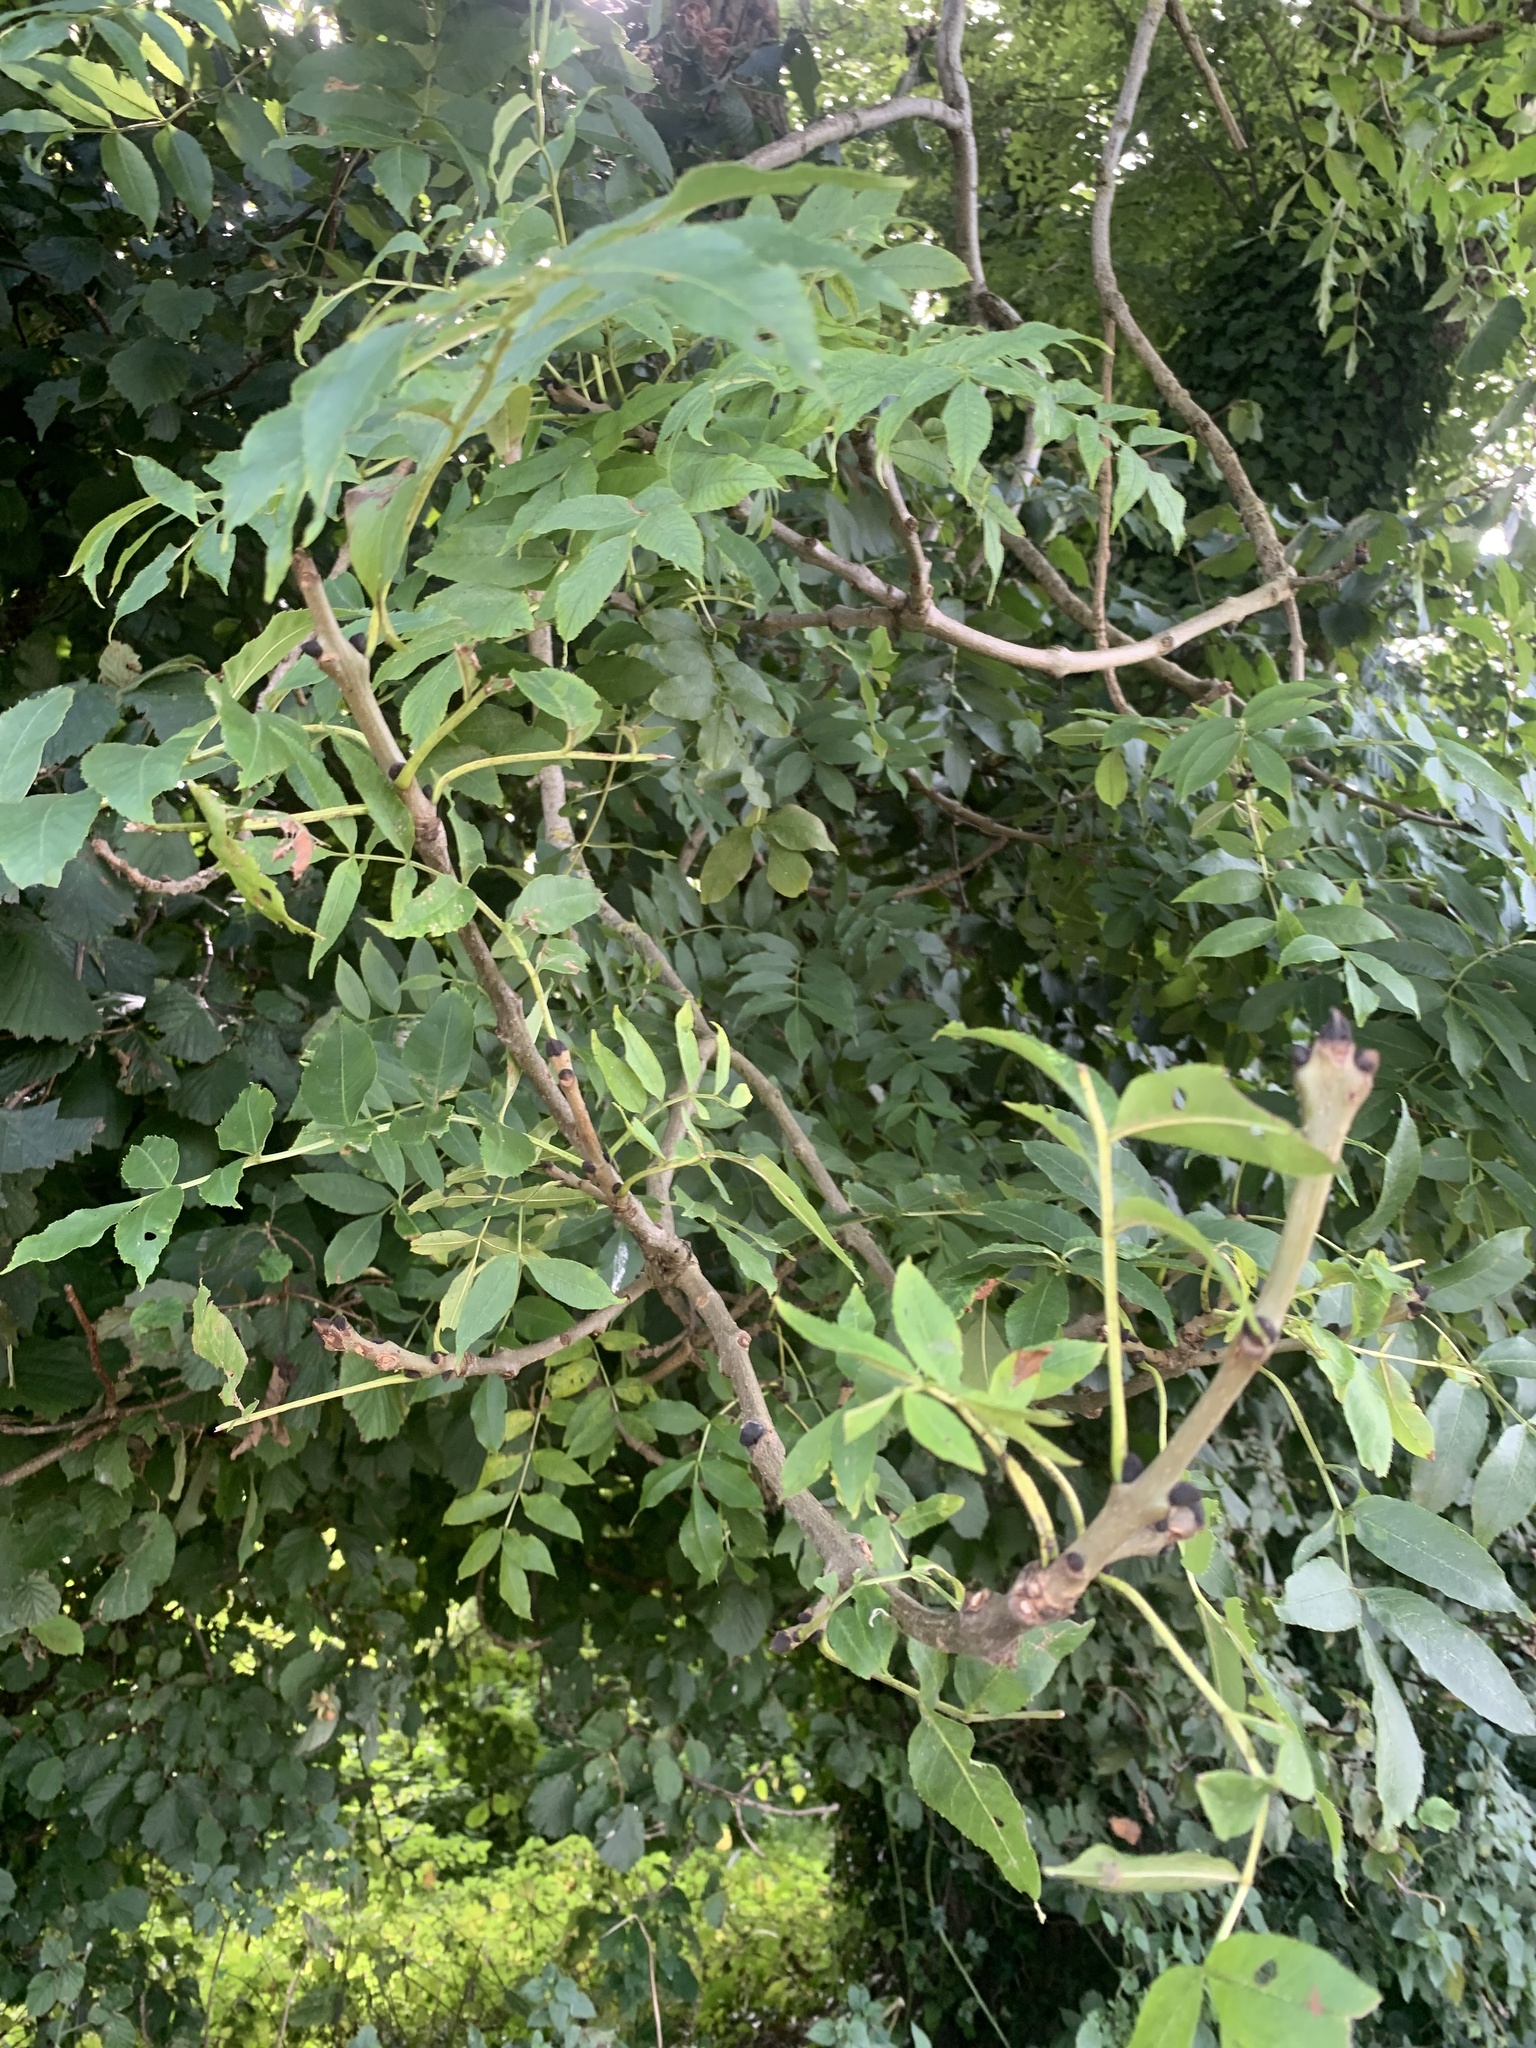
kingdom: Plantae
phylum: Tracheophyta
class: Magnoliopsida
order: Lamiales
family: Oleaceae
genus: Fraxinus
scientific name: Fraxinus excelsior
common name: European ash
